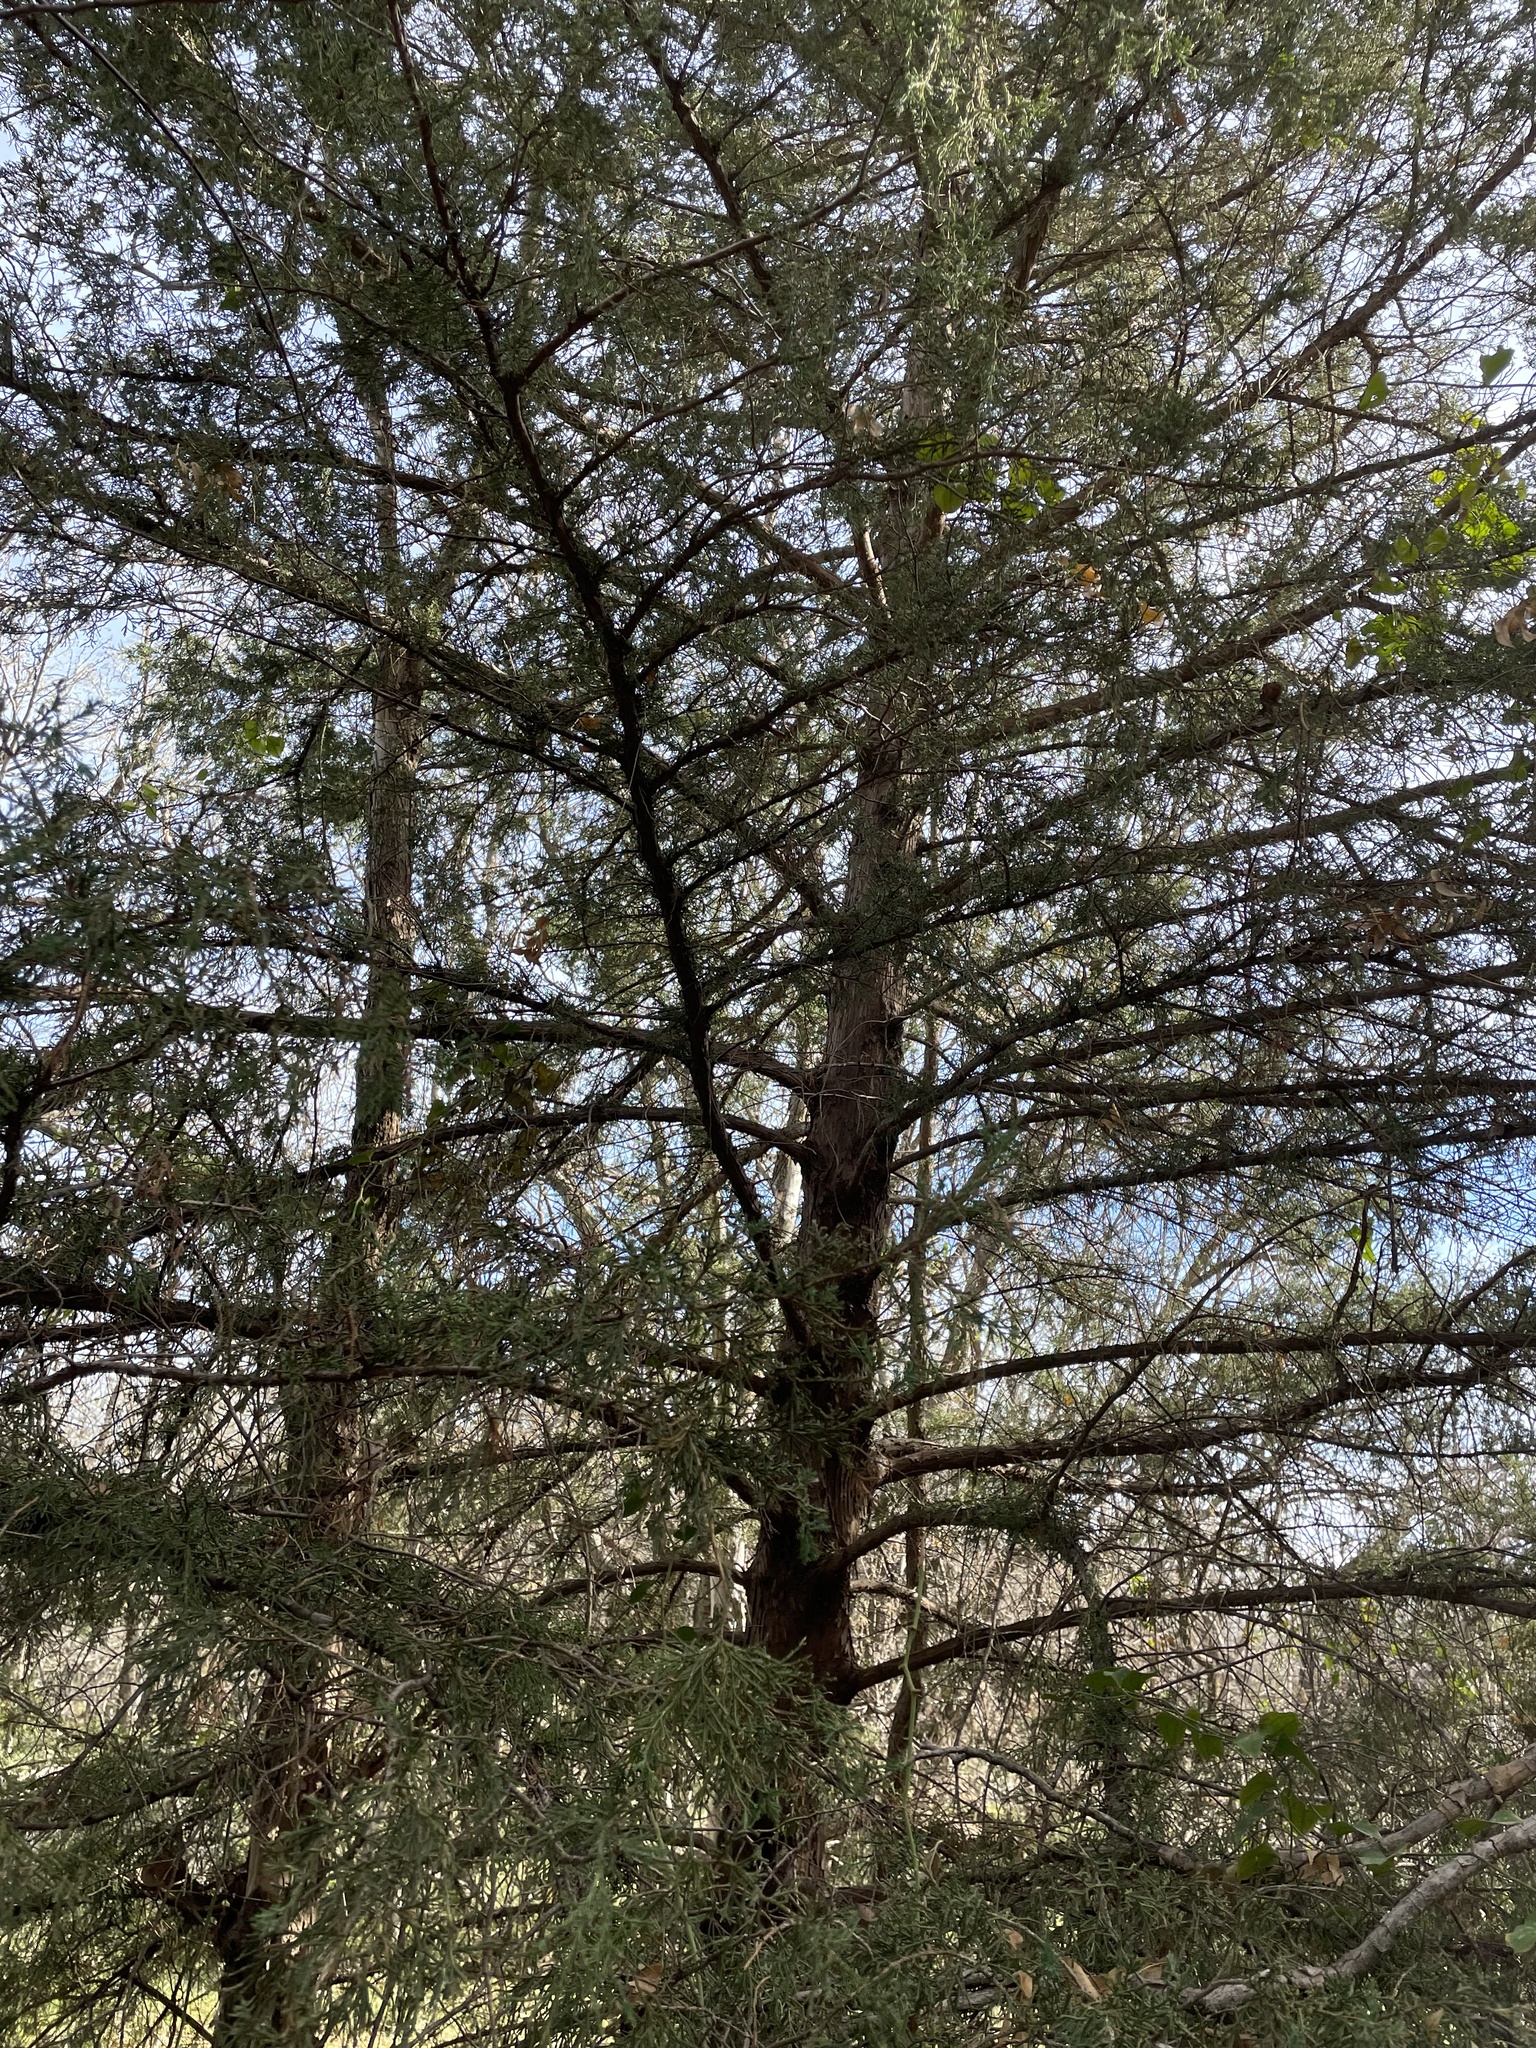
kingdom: Plantae
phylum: Tracheophyta
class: Pinopsida
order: Pinales
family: Cupressaceae
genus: Juniperus
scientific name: Juniperus virginiana
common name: Red juniper
